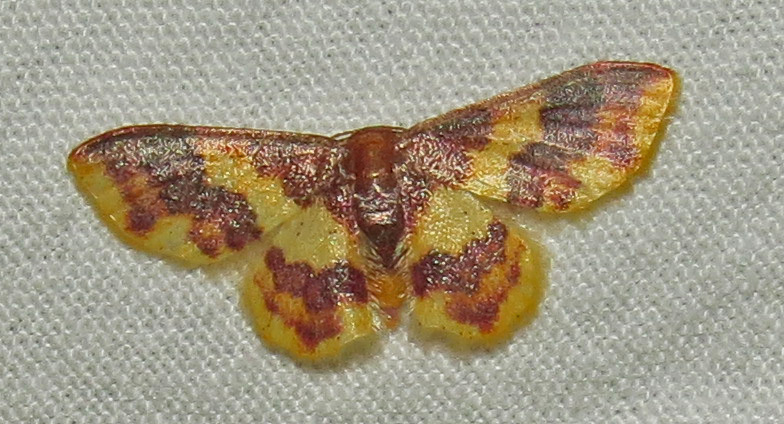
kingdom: Animalia
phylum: Arthropoda
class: Insecta
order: Lepidoptera
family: Geometridae
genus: Lophosis
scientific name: Lophosis labeculata
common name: Stained lophosis moth
